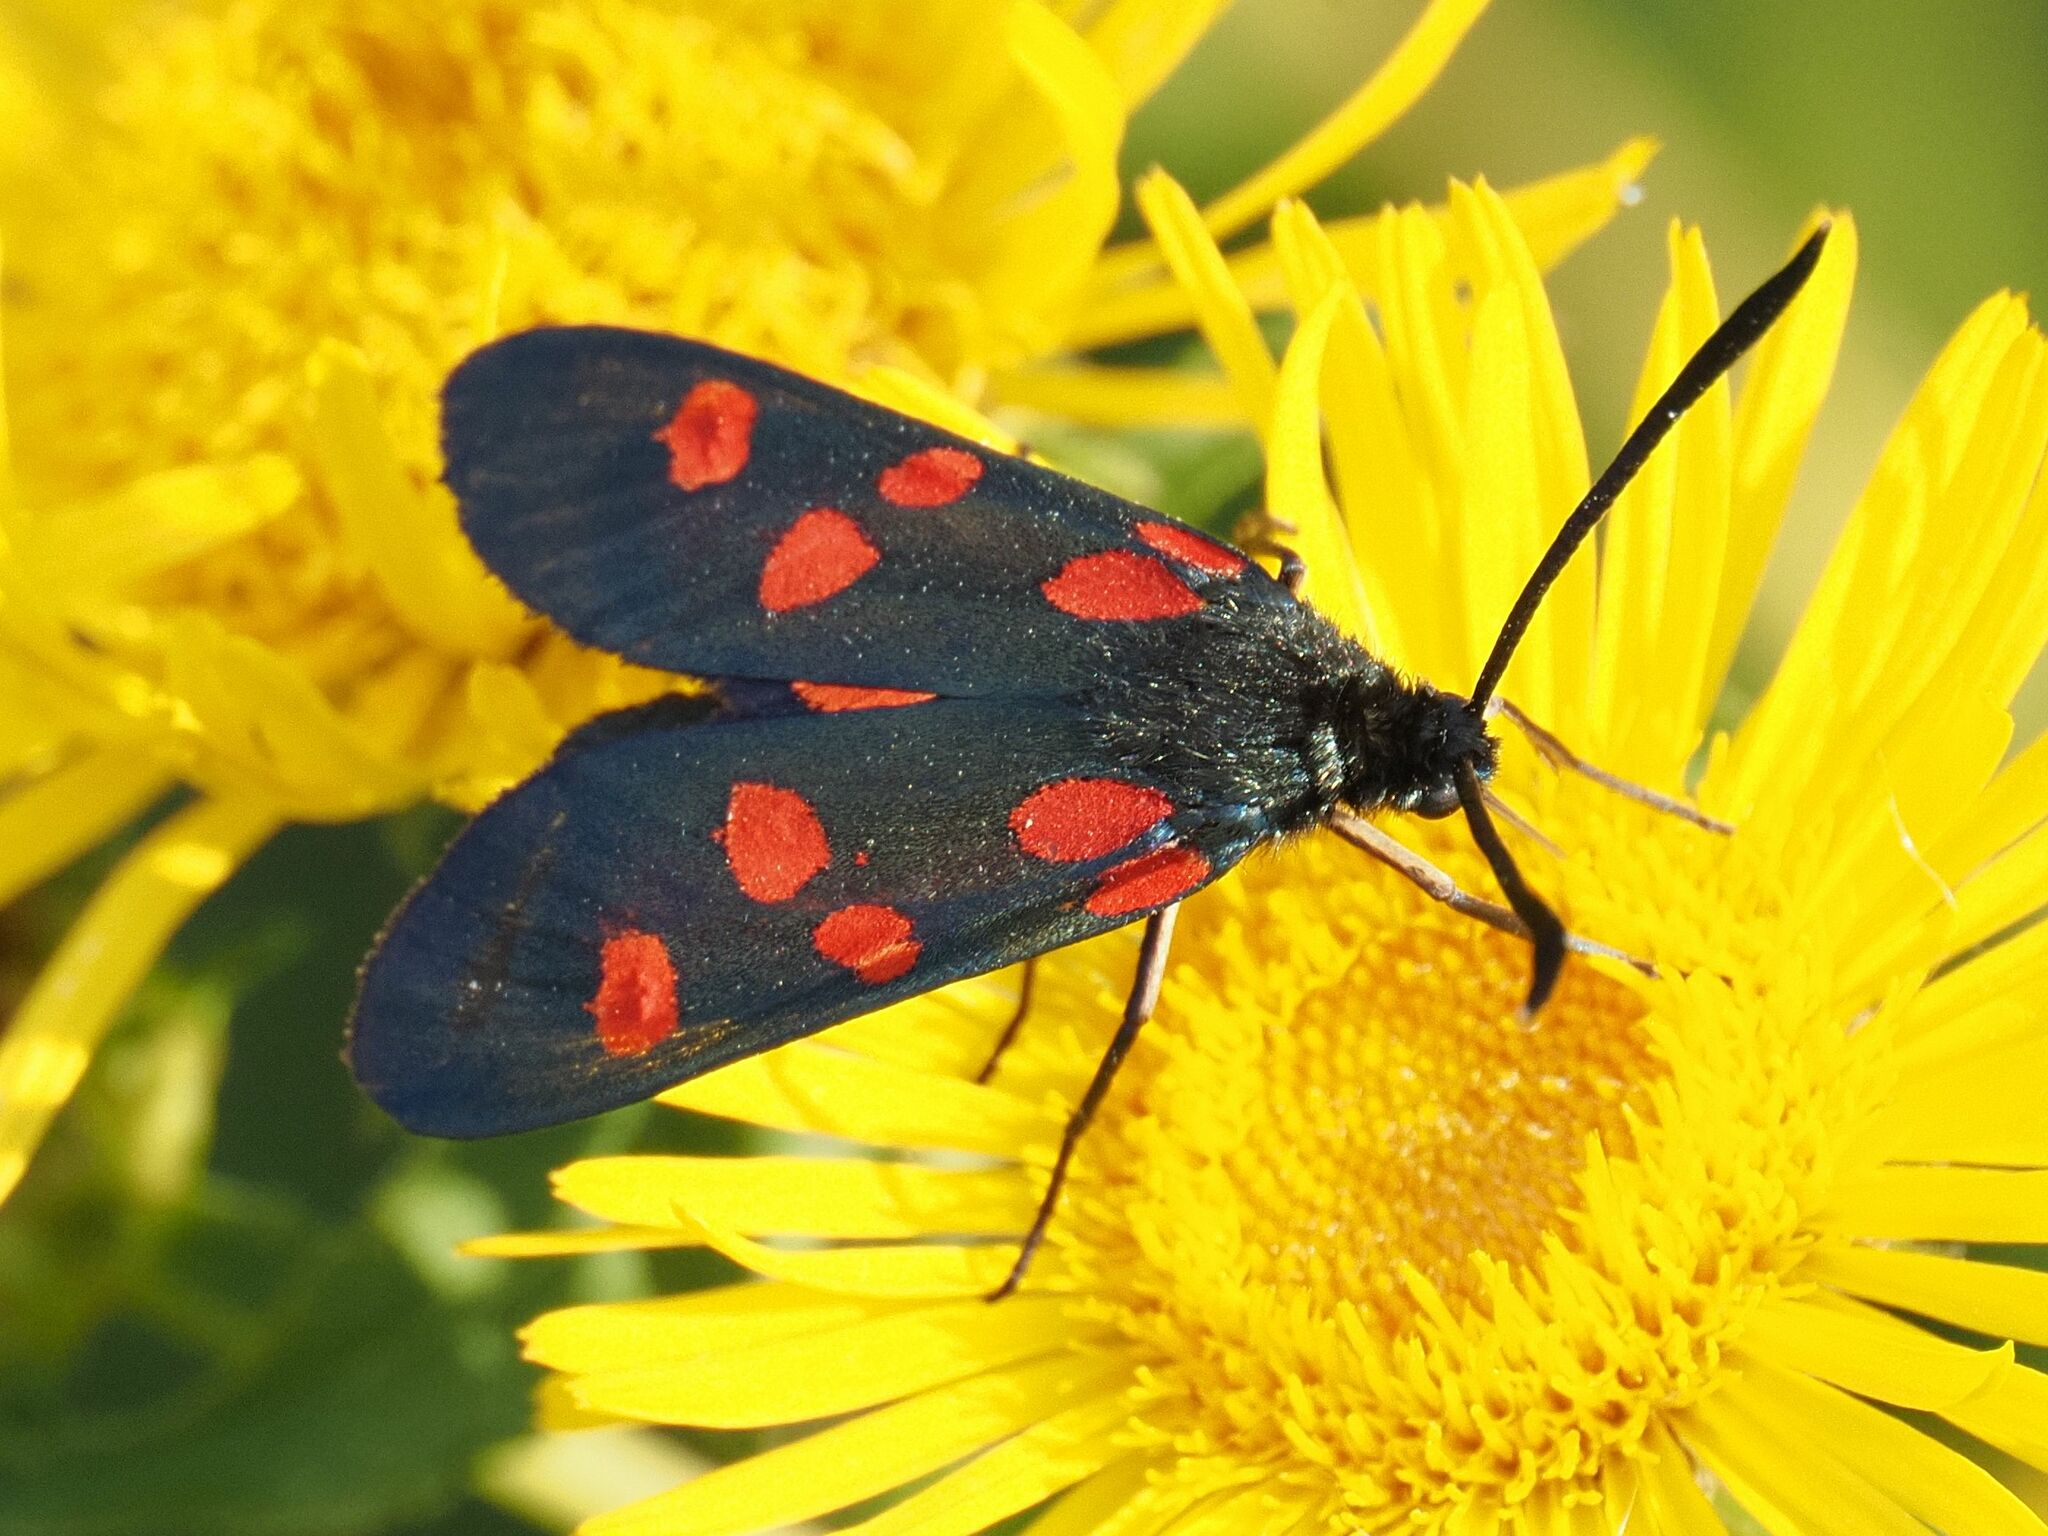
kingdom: Animalia
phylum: Arthropoda
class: Insecta
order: Lepidoptera
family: Zygaenidae
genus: Zygaena
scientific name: Zygaena angelicae
